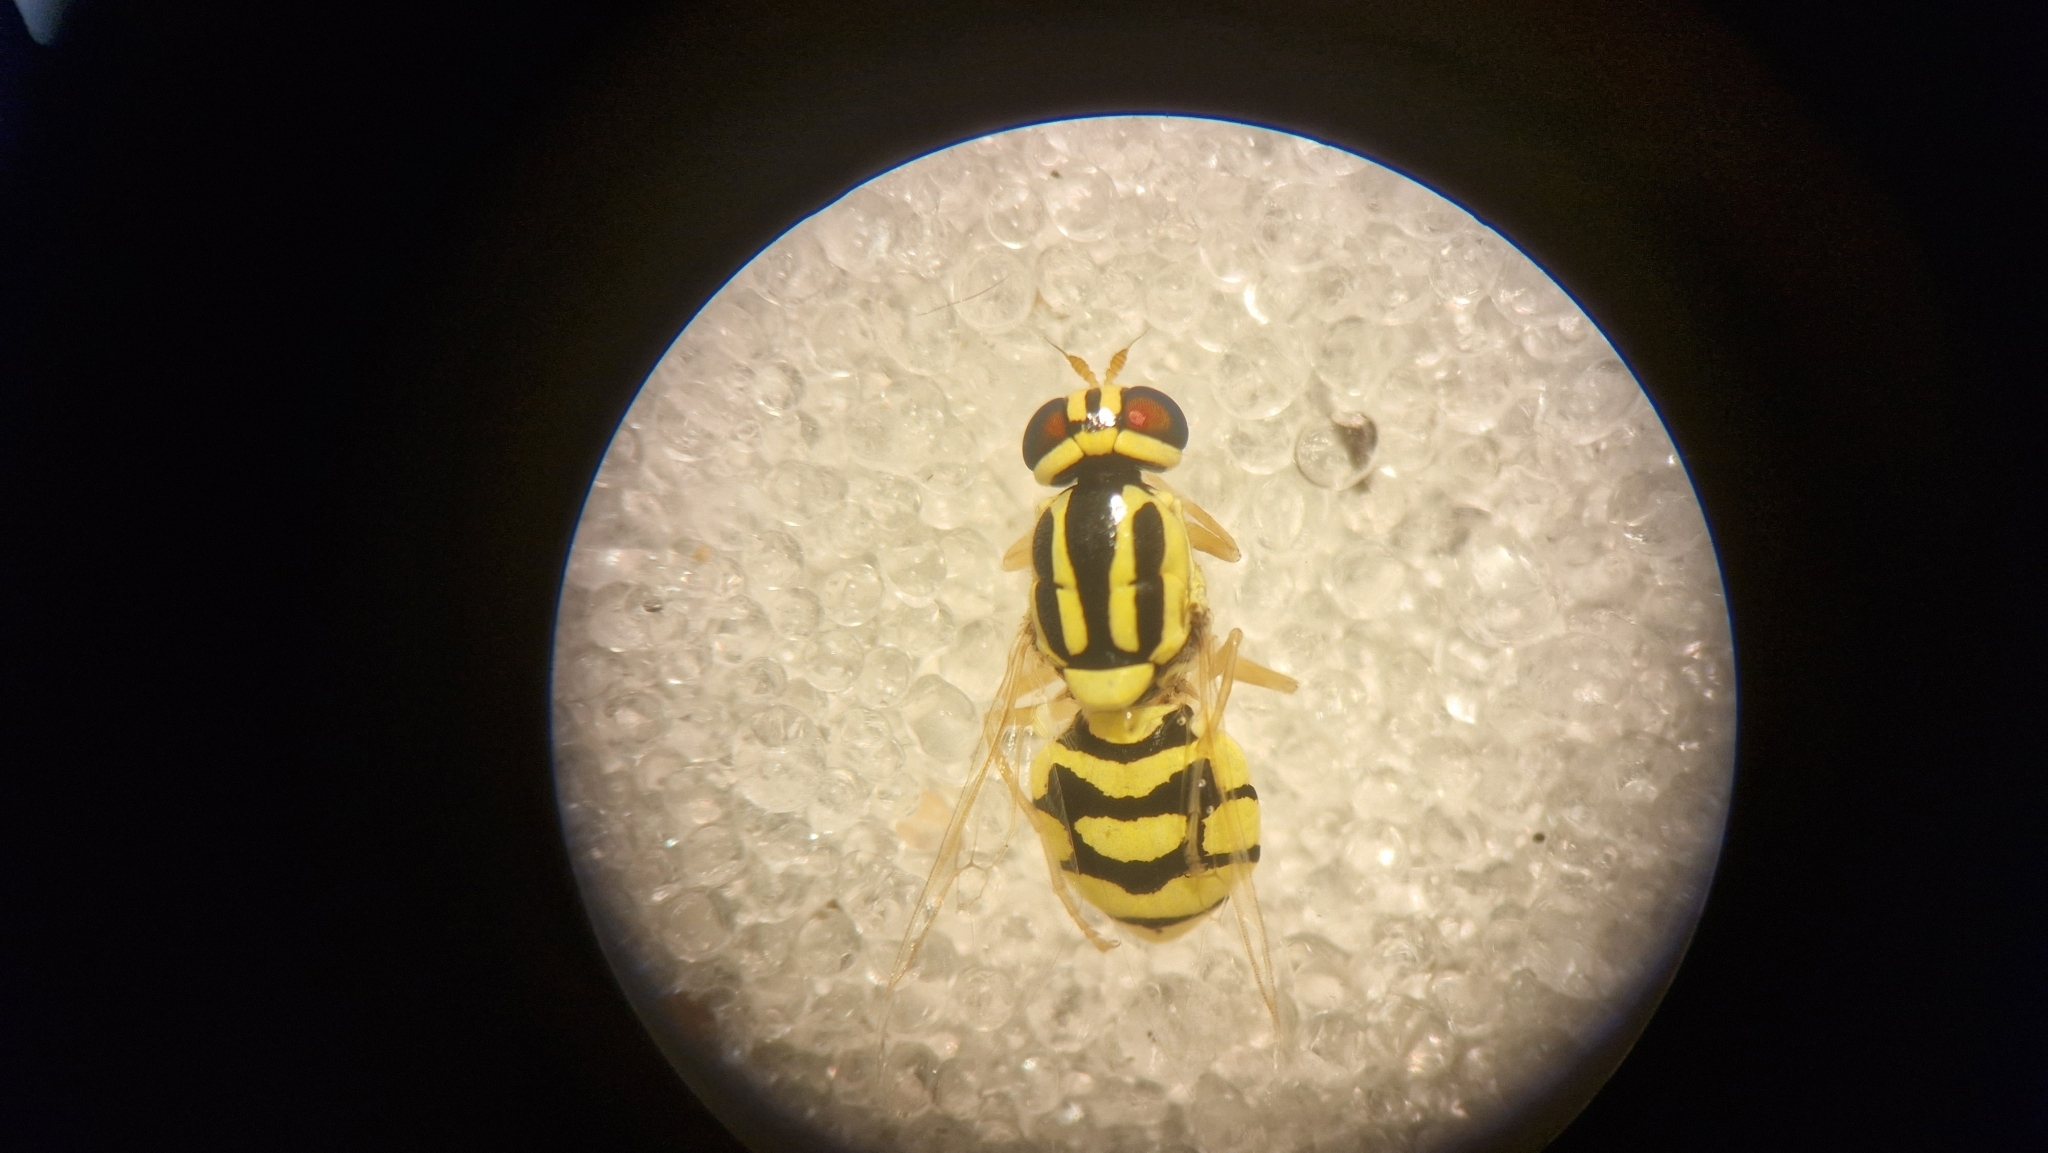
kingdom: Animalia
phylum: Arthropoda
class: Insecta
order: Diptera
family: Stratiomyidae
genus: Oxycera
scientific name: Oxycera trilineata
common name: Three-lined soldier
